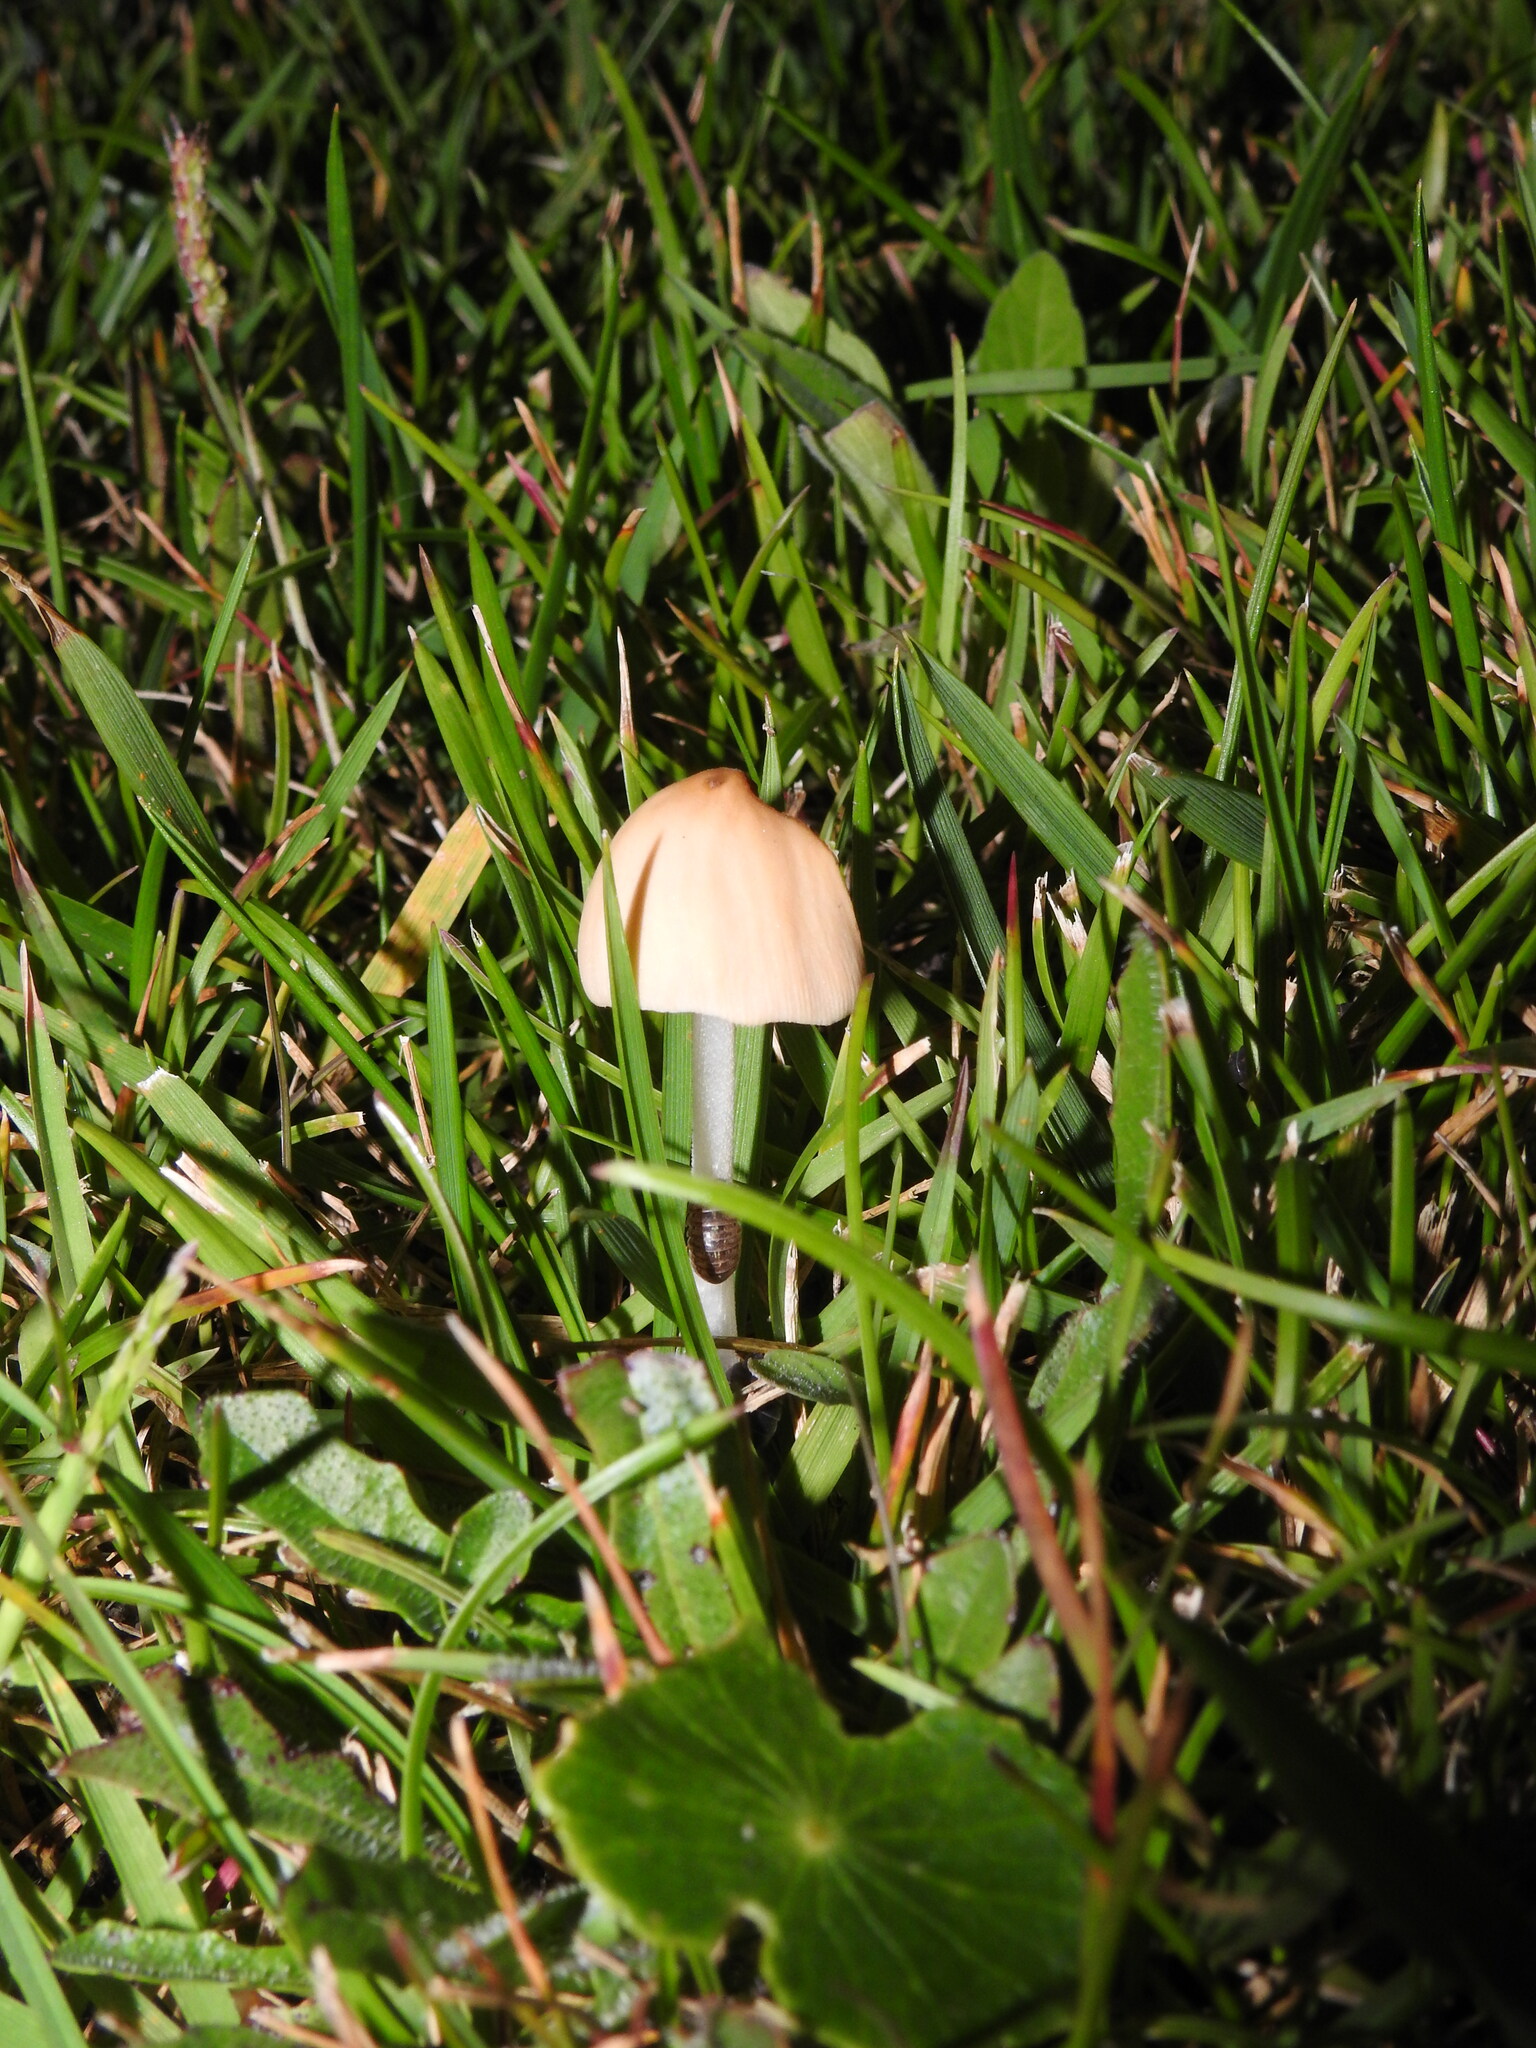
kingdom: Fungi
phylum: Basidiomycota
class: Agaricomycetes
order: Agaricales
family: Bolbitiaceae
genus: Conocybe
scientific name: Conocybe apala
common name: Milky conecap
